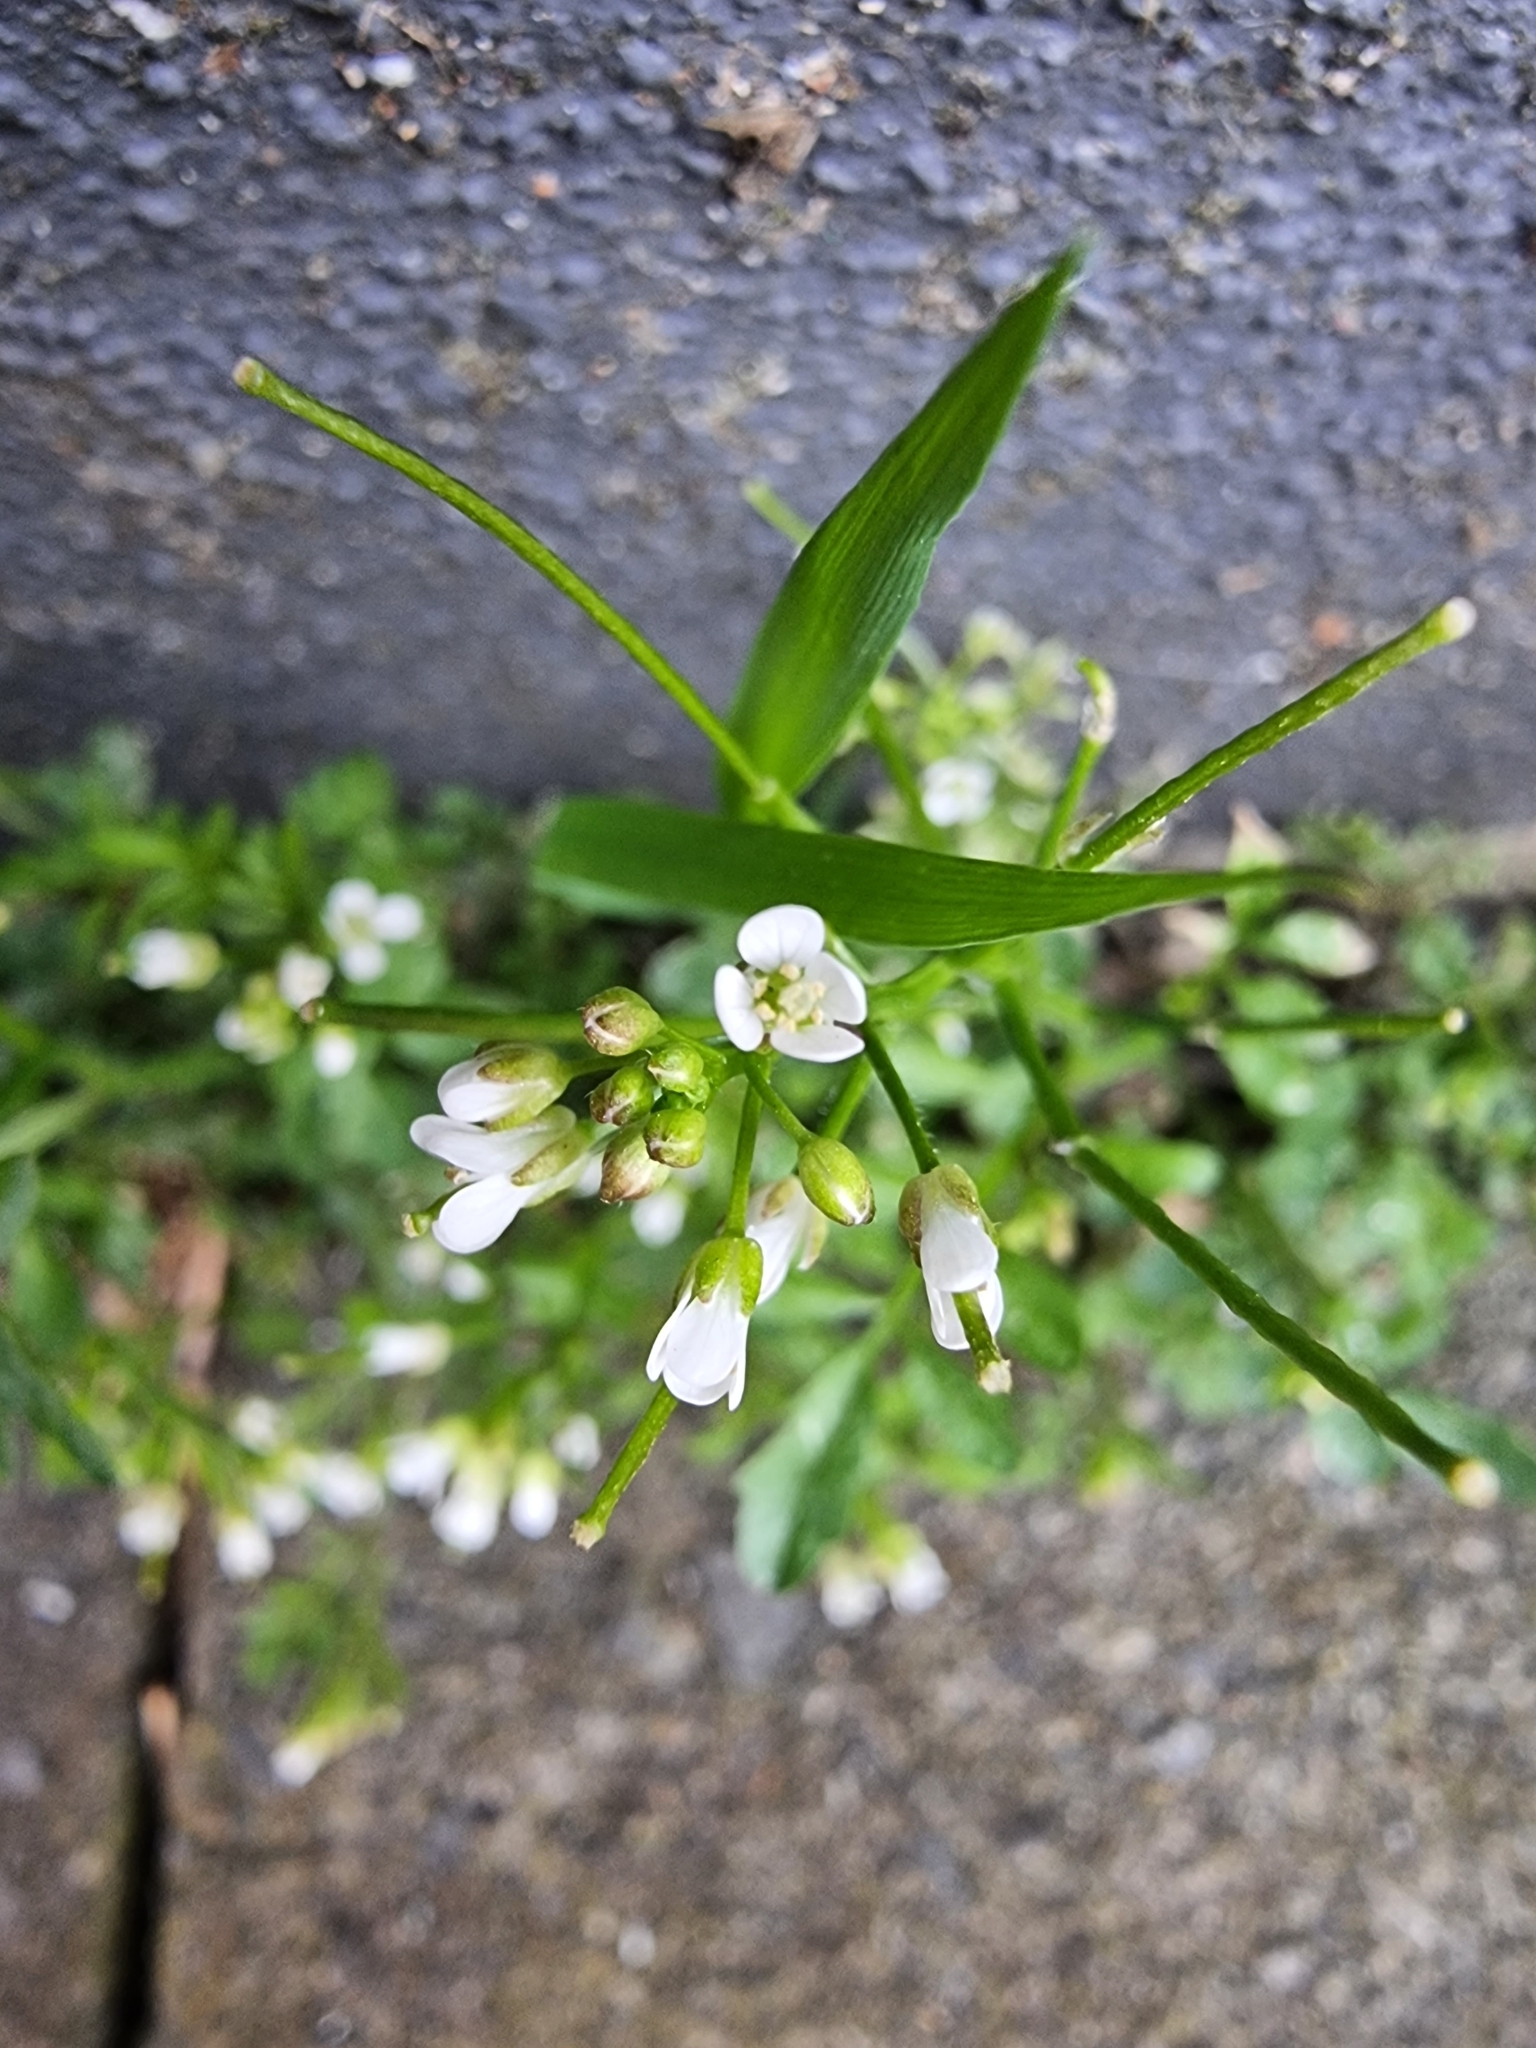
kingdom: Plantae
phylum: Tracheophyta
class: Magnoliopsida
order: Brassicales
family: Brassicaceae
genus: Cardamine
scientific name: Cardamine flexuosa
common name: Woodland bittercress
